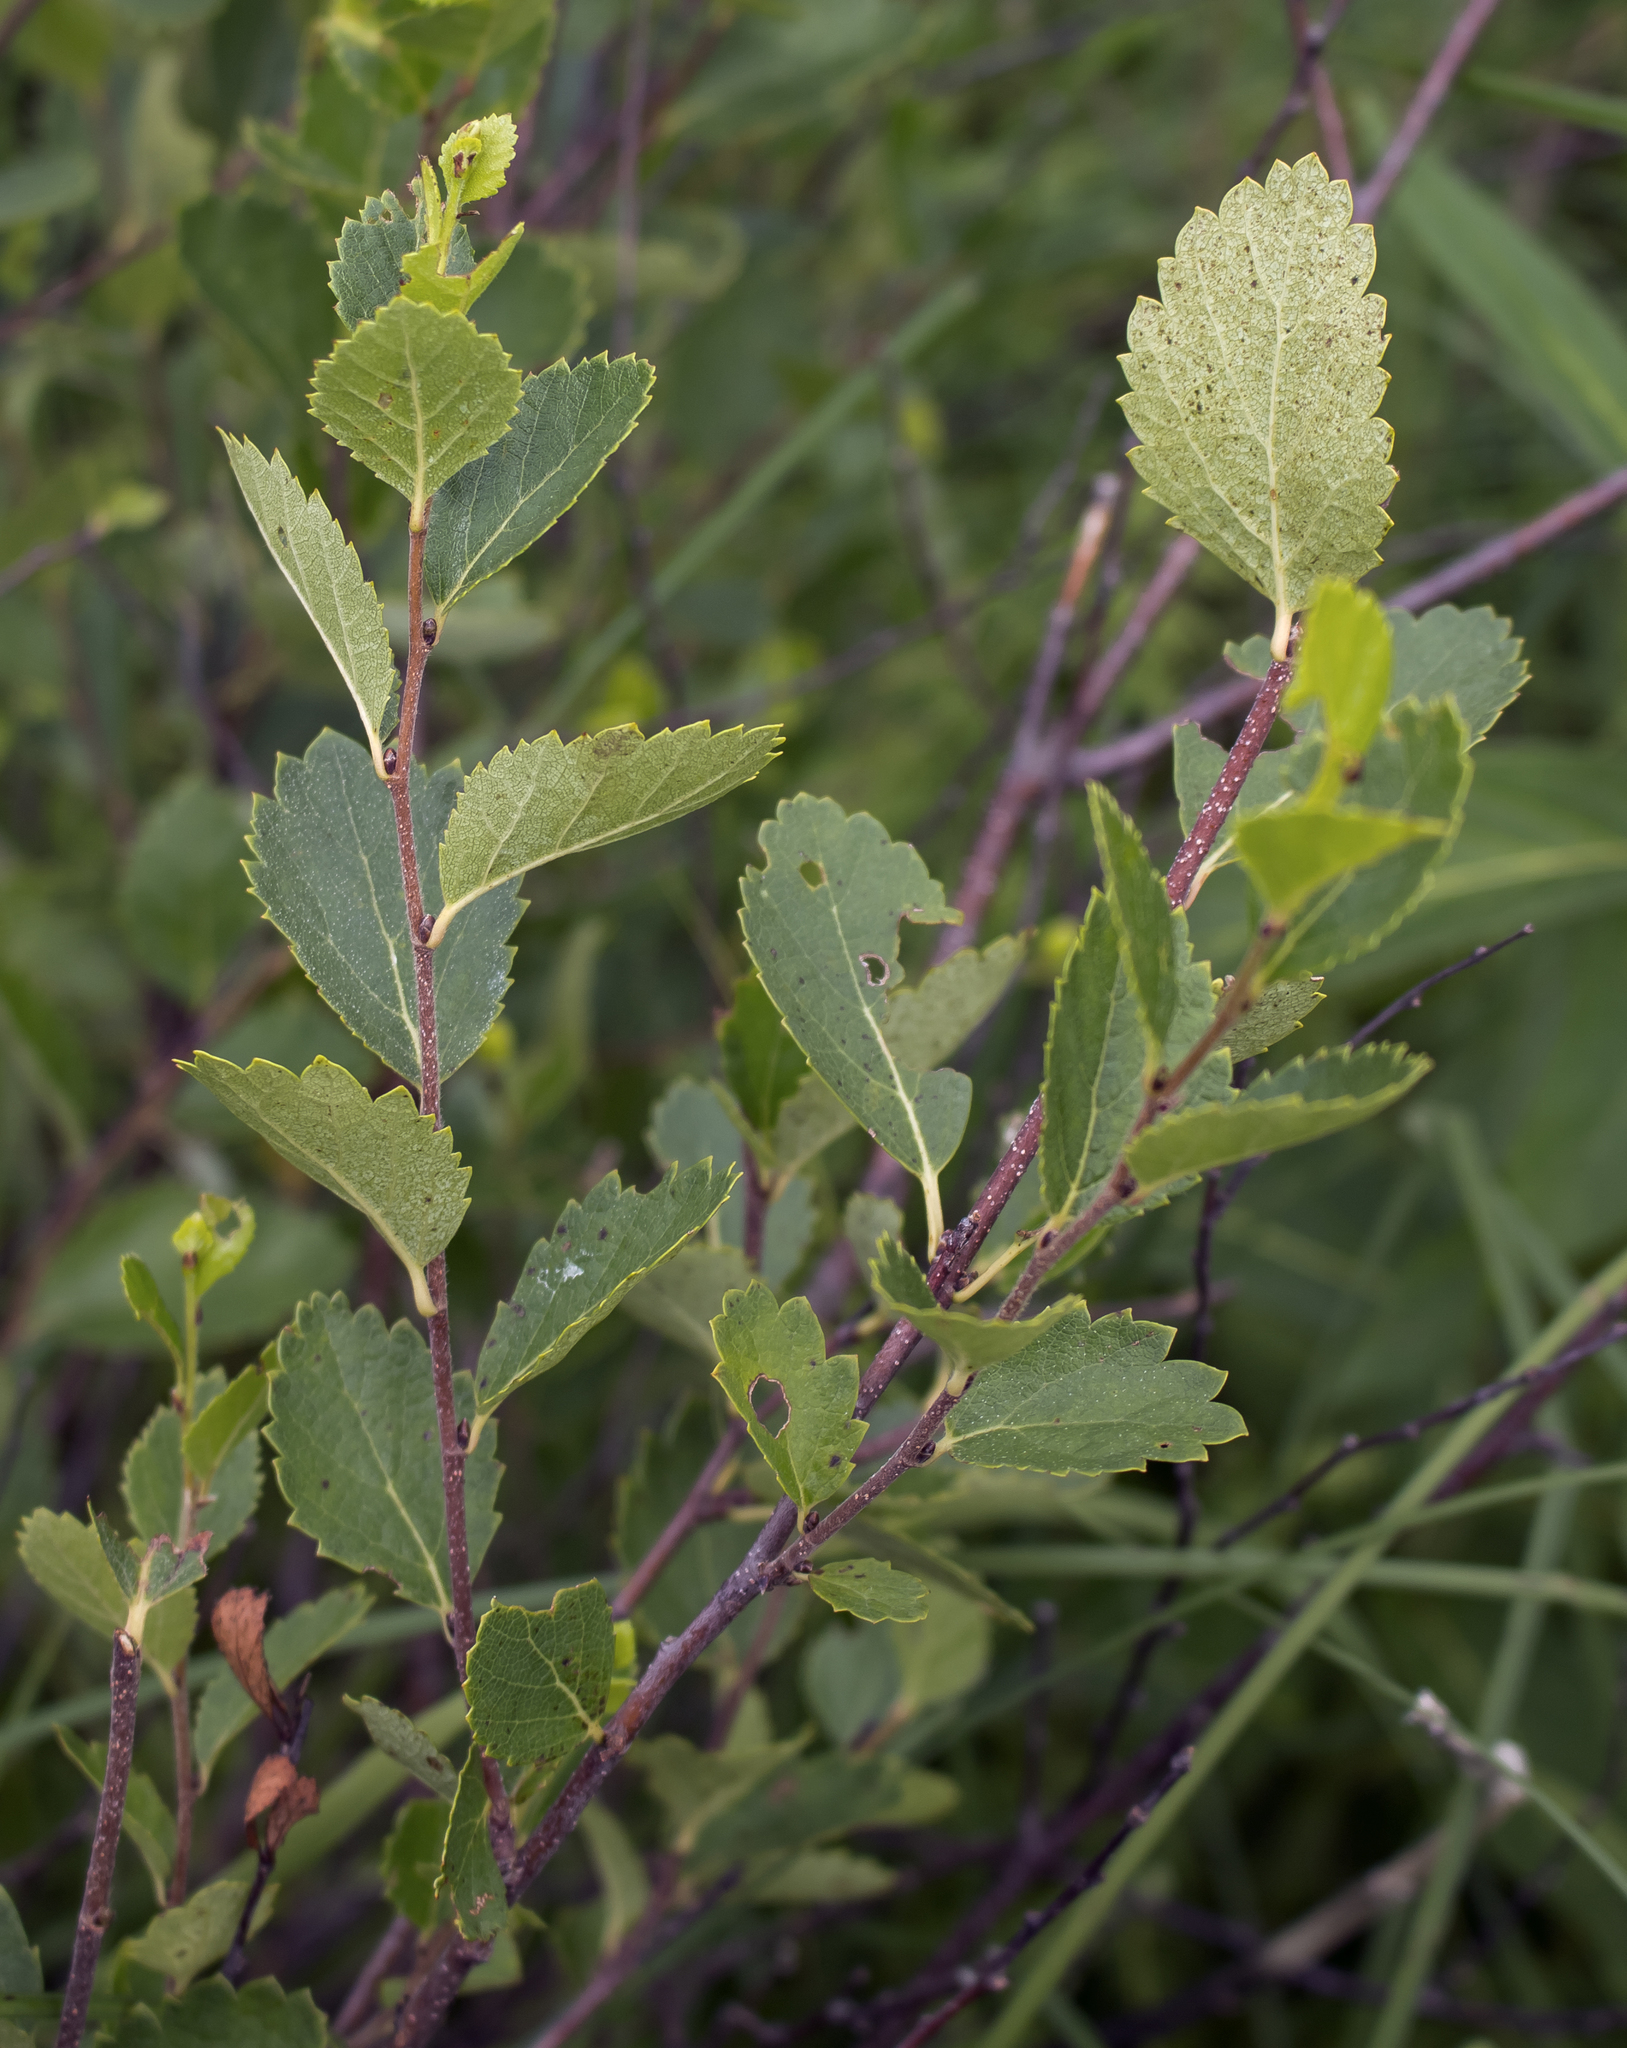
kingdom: Plantae
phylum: Tracheophyta
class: Magnoliopsida
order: Fagales
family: Betulaceae
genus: Betula
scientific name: Betula pumila
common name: Bog birch
